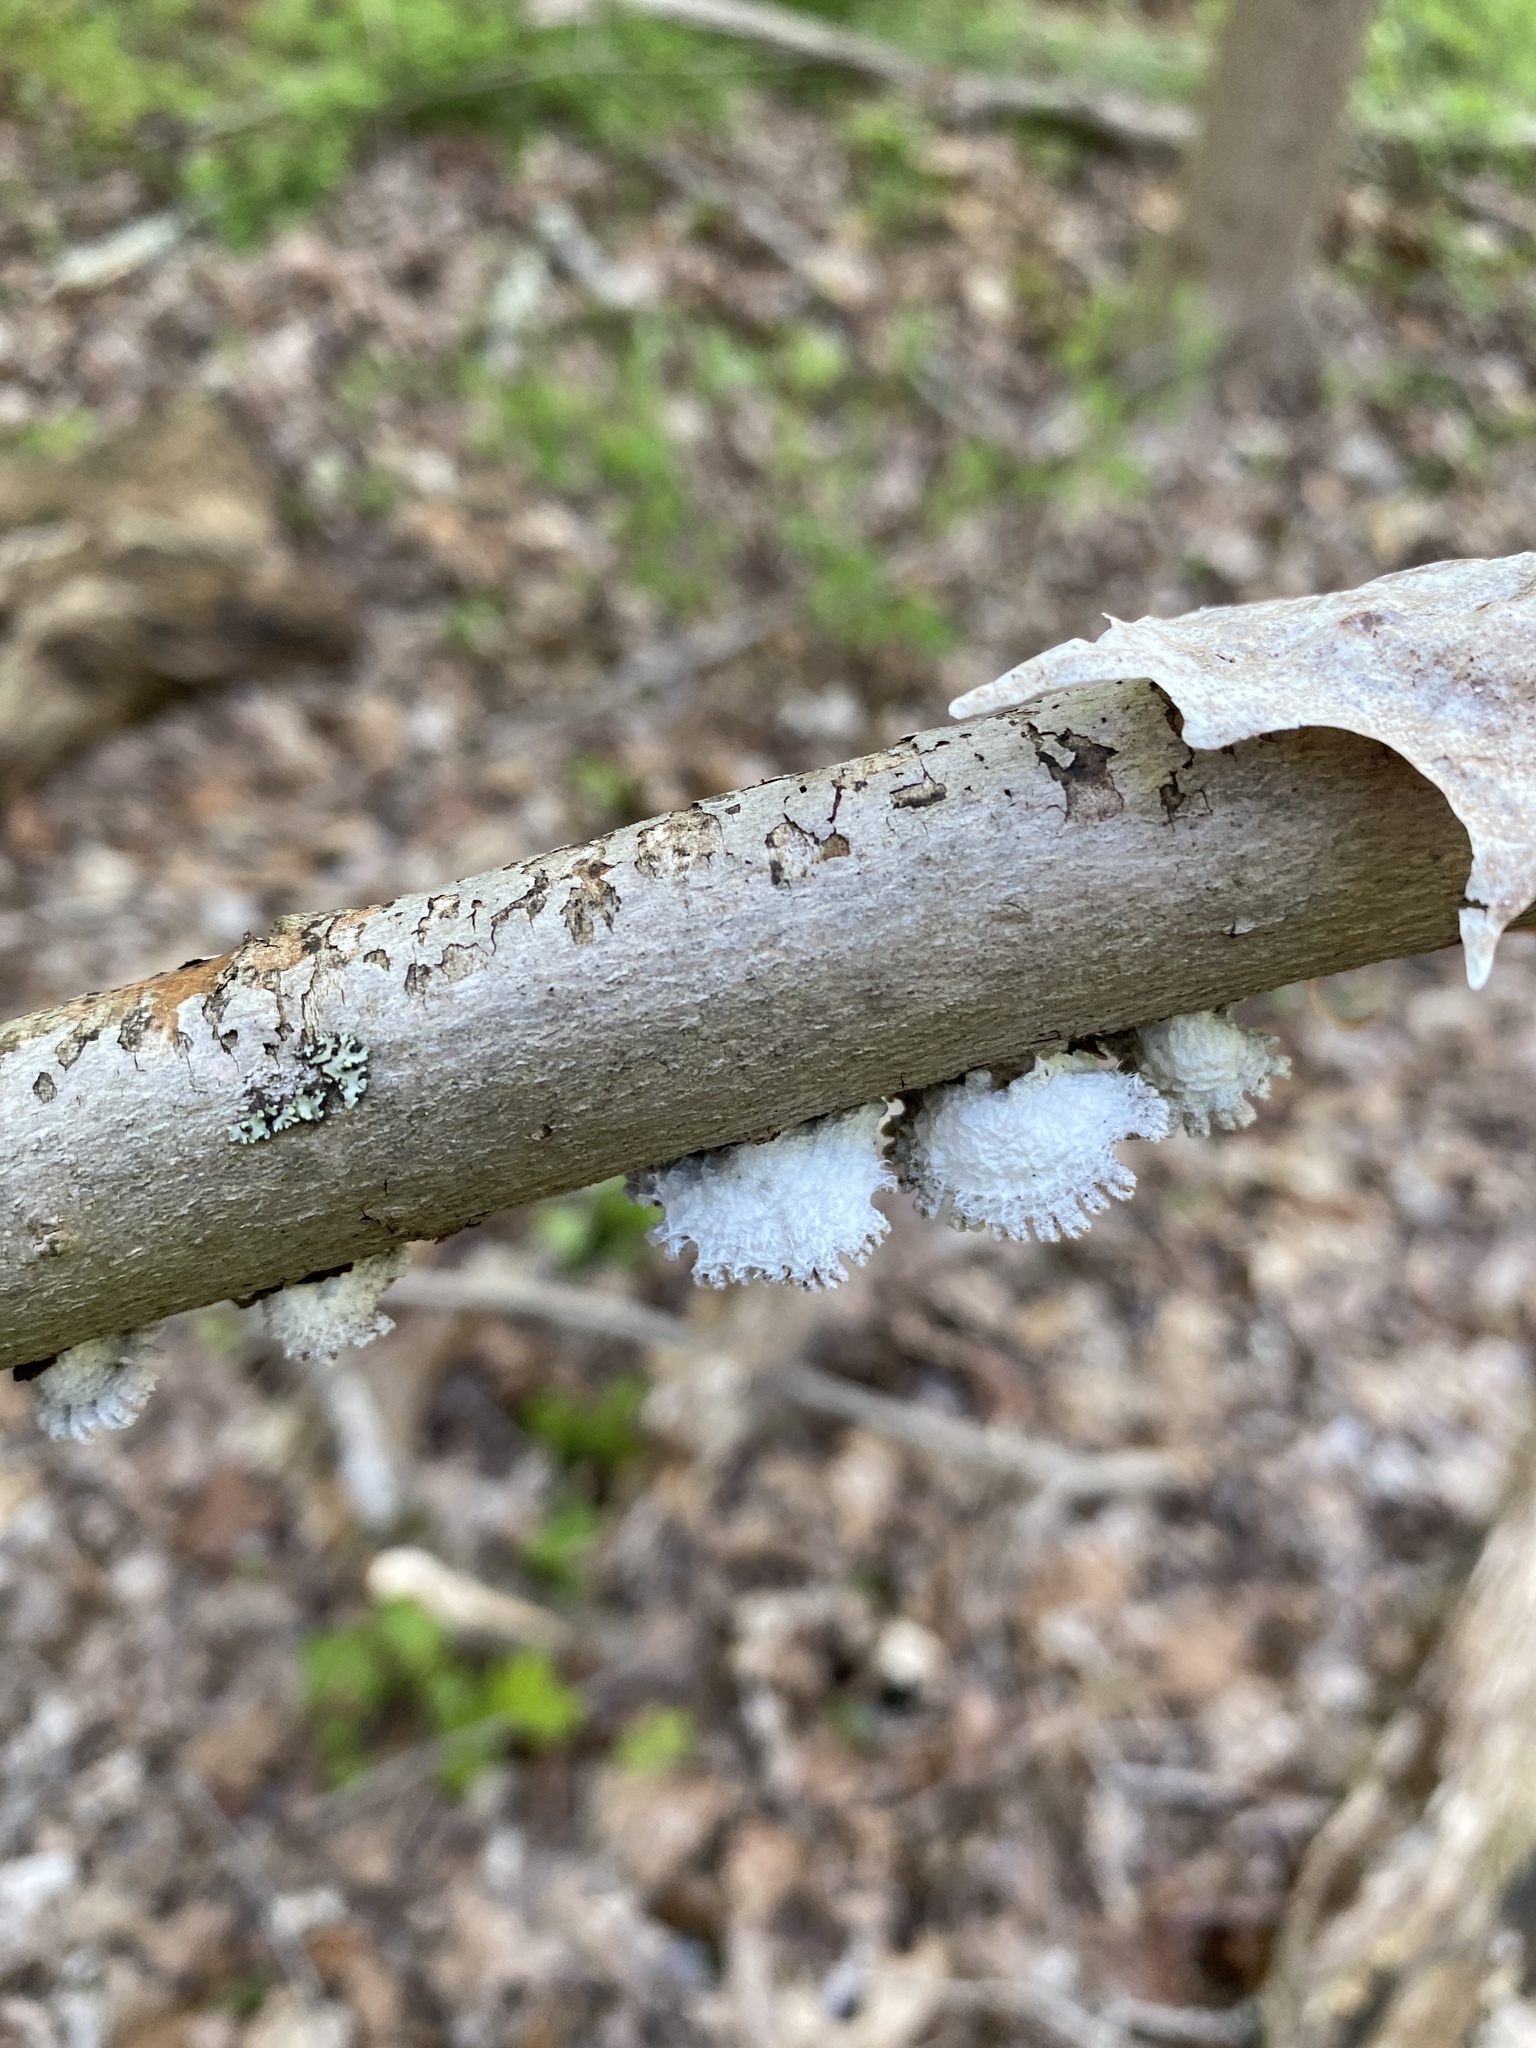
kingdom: Fungi
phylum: Basidiomycota
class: Agaricomycetes
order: Agaricales
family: Schizophyllaceae
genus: Schizophyllum
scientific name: Schizophyllum commune
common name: Common porecrust
